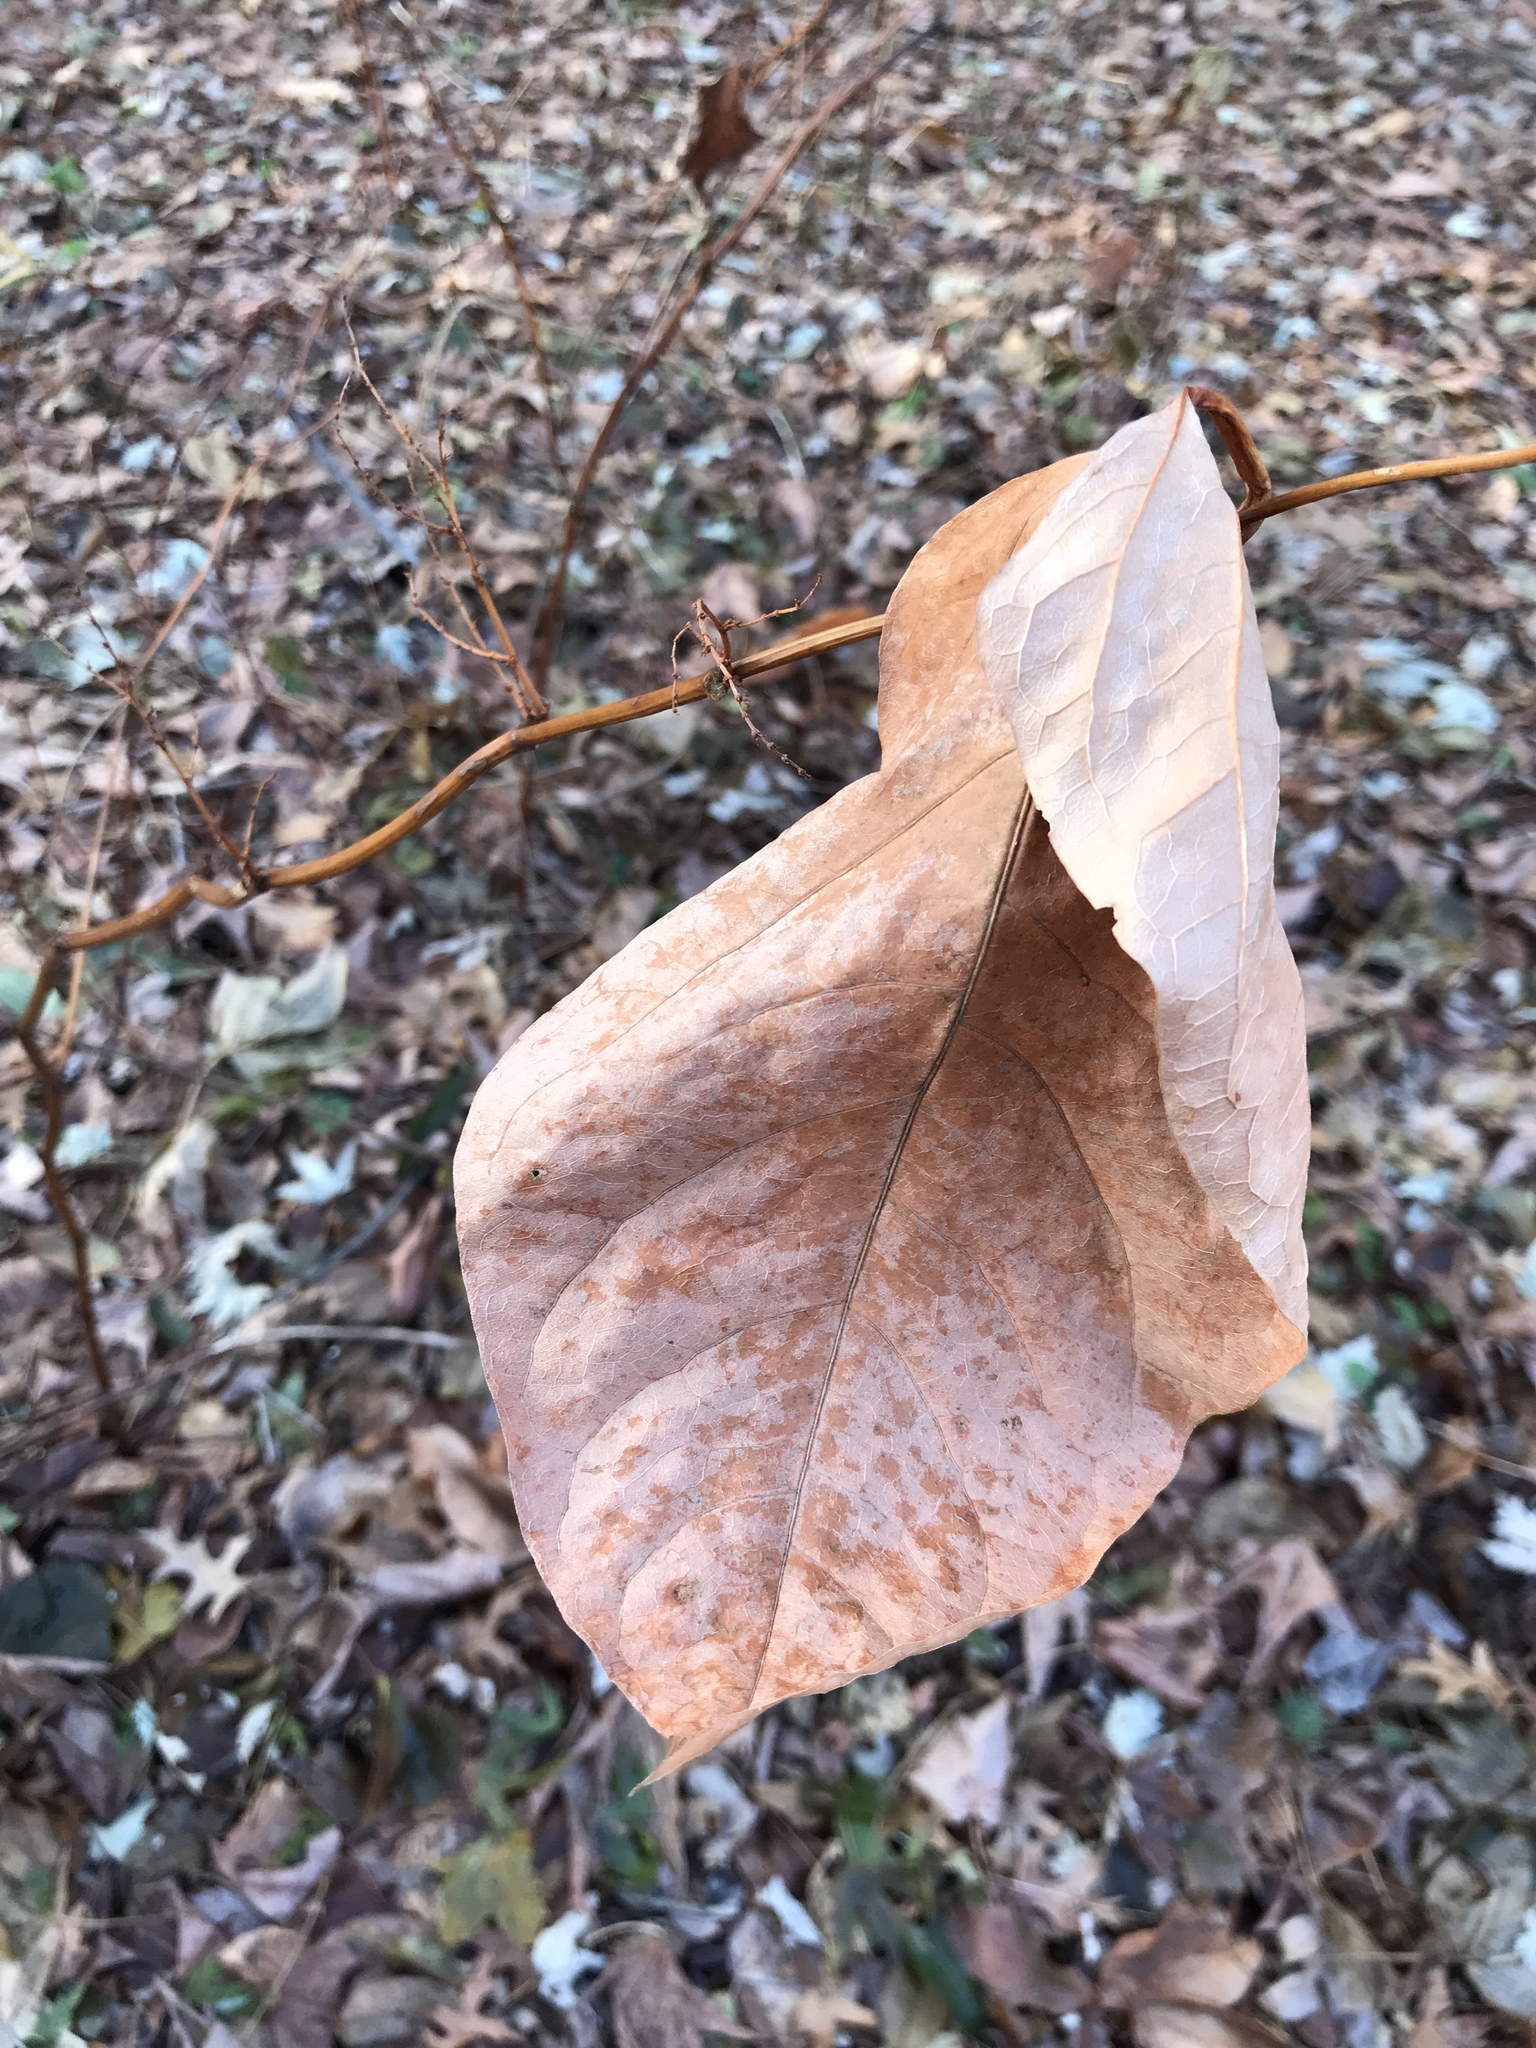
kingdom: Plantae
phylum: Tracheophyta
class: Magnoliopsida
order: Caryophyllales
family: Polygonaceae
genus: Reynoutria
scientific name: Reynoutria japonica
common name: Japanese knotweed
